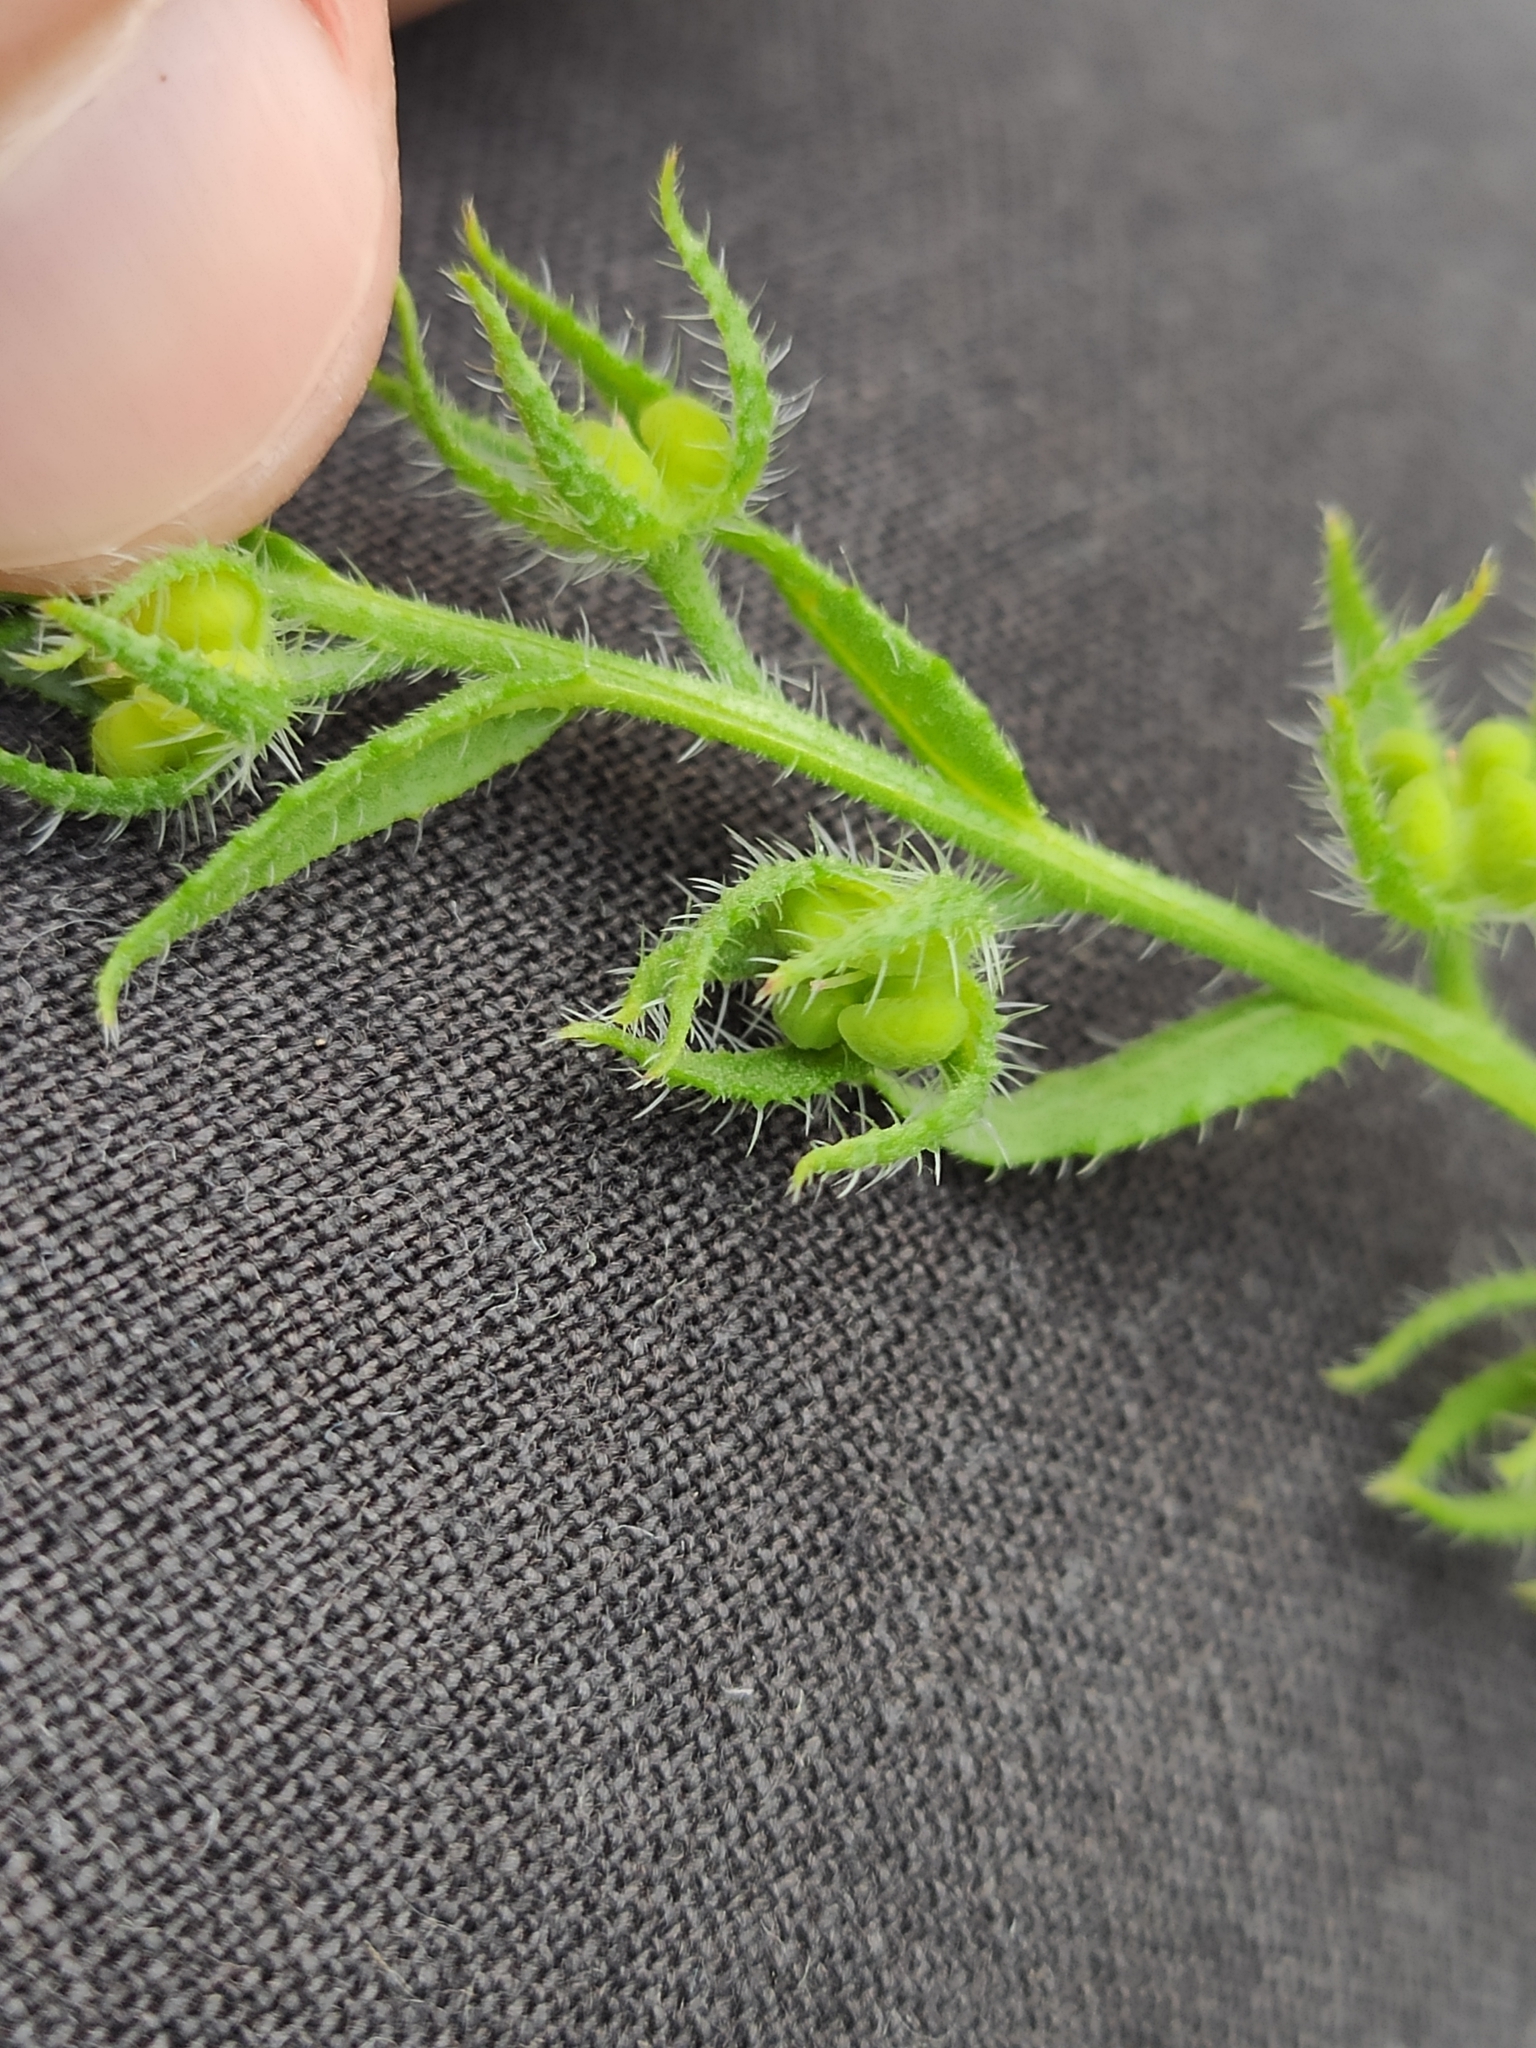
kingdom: Plantae
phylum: Tracheophyta
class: Magnoliopsida
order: Boraginales
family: Boraginaceae
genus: Lycopsis
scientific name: Lycopsis arvensis
